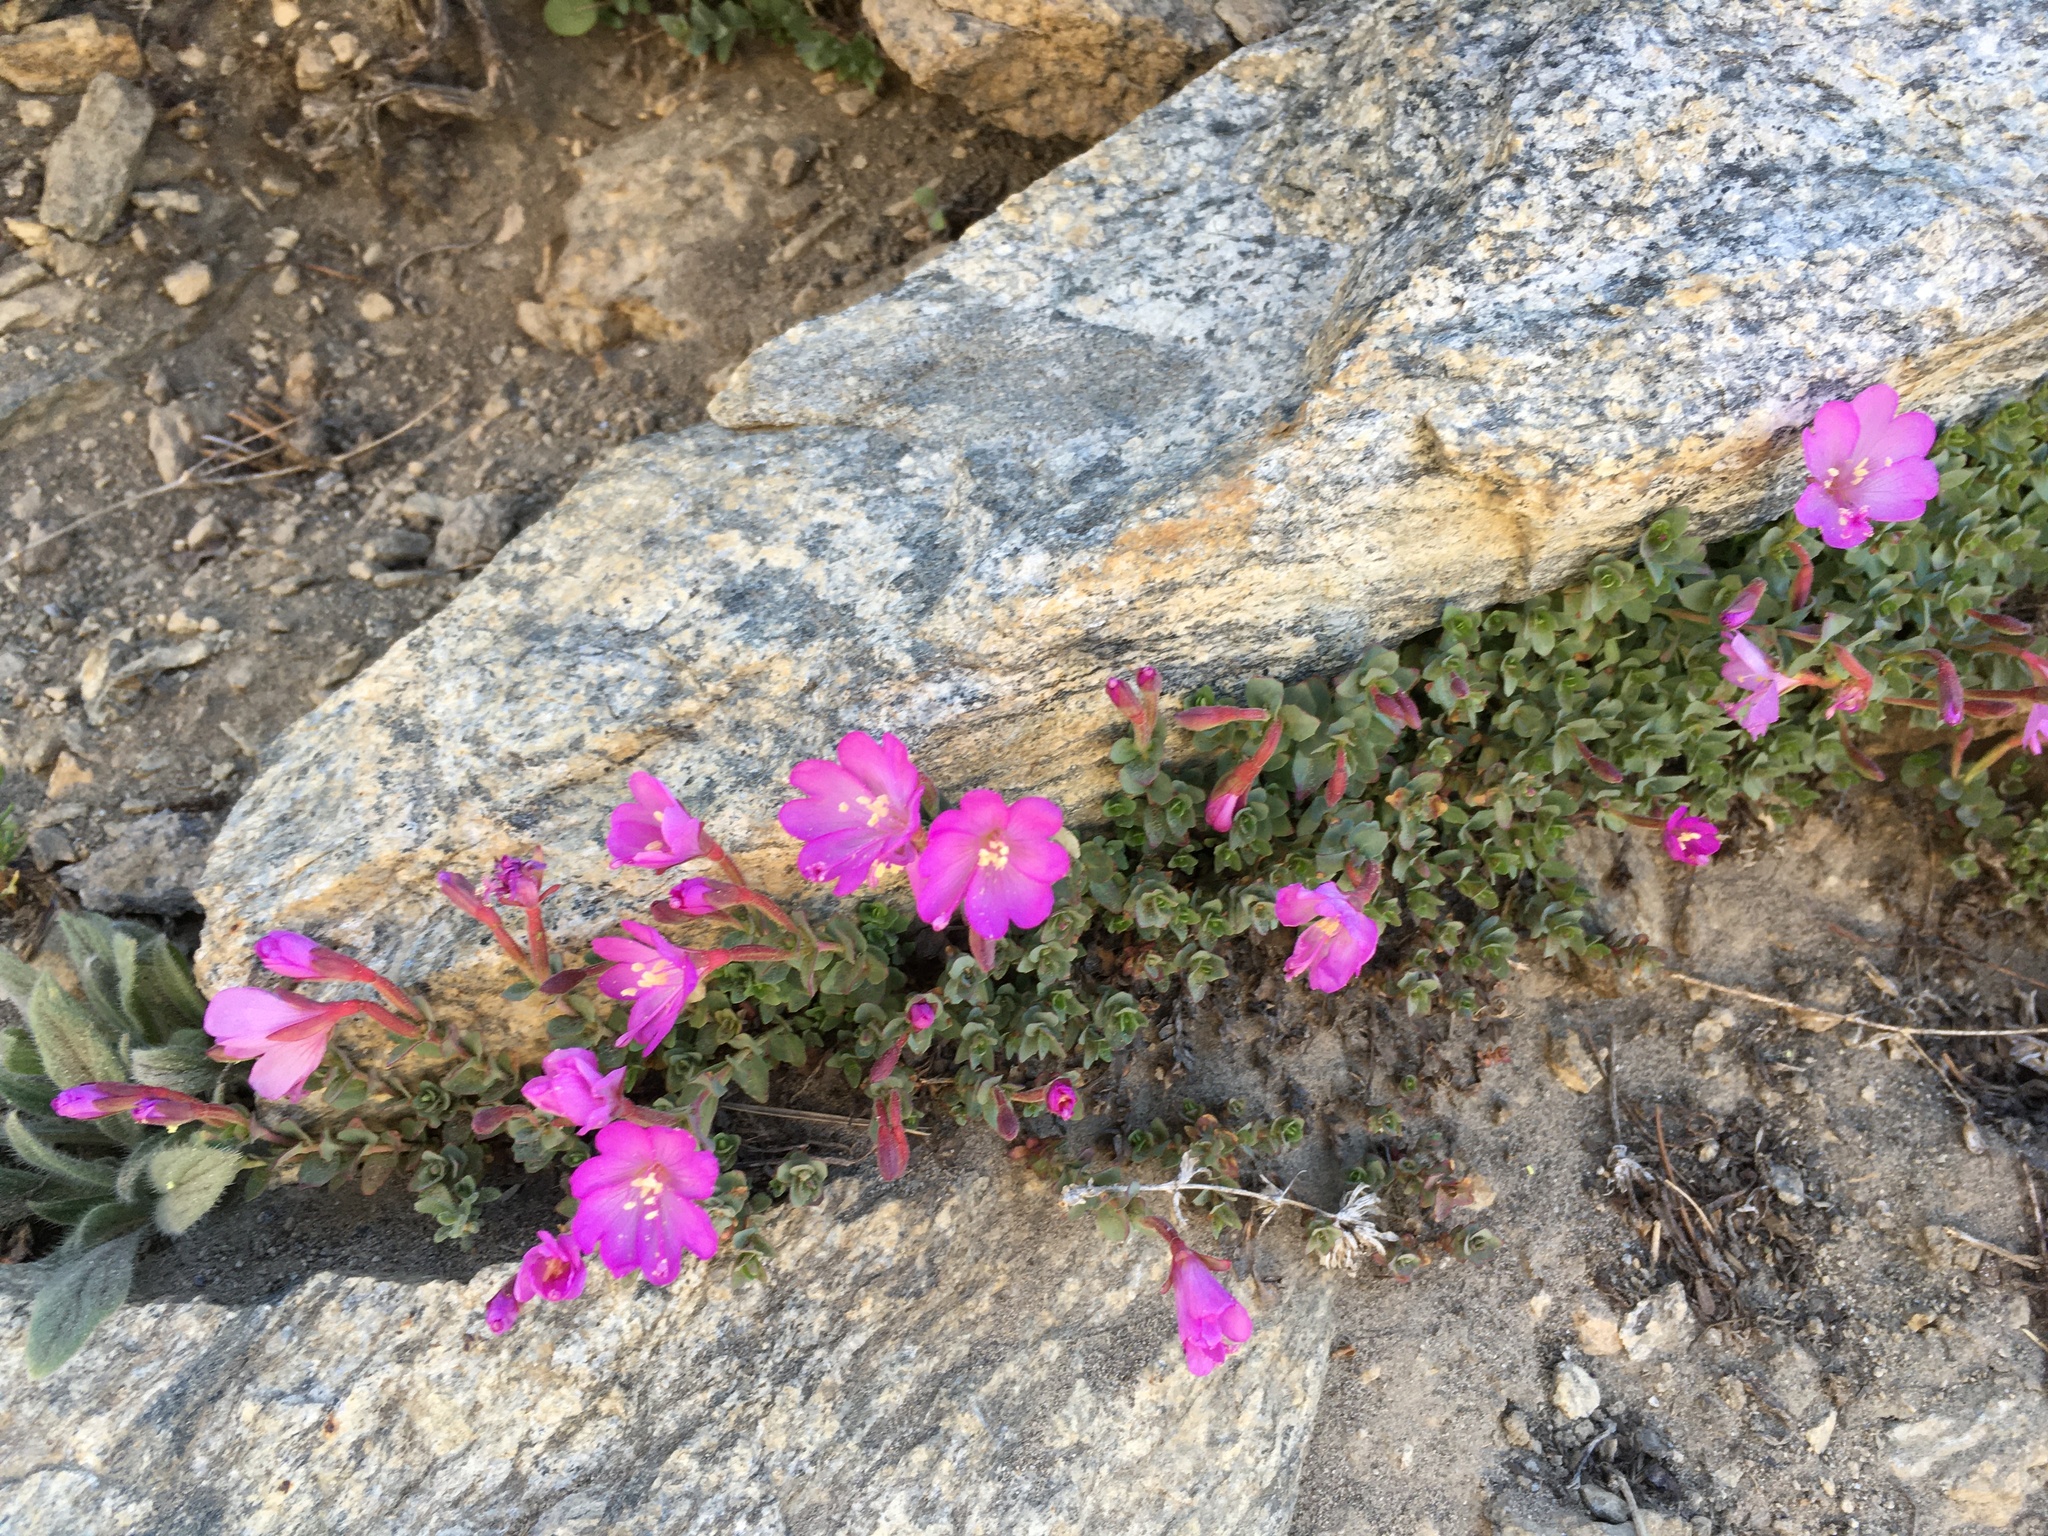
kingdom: Plantae
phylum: Tracheophyta
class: Magnoliopsida
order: Myrtales
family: Onagraceae
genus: Epilobium
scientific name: Epilobium obcordatum
